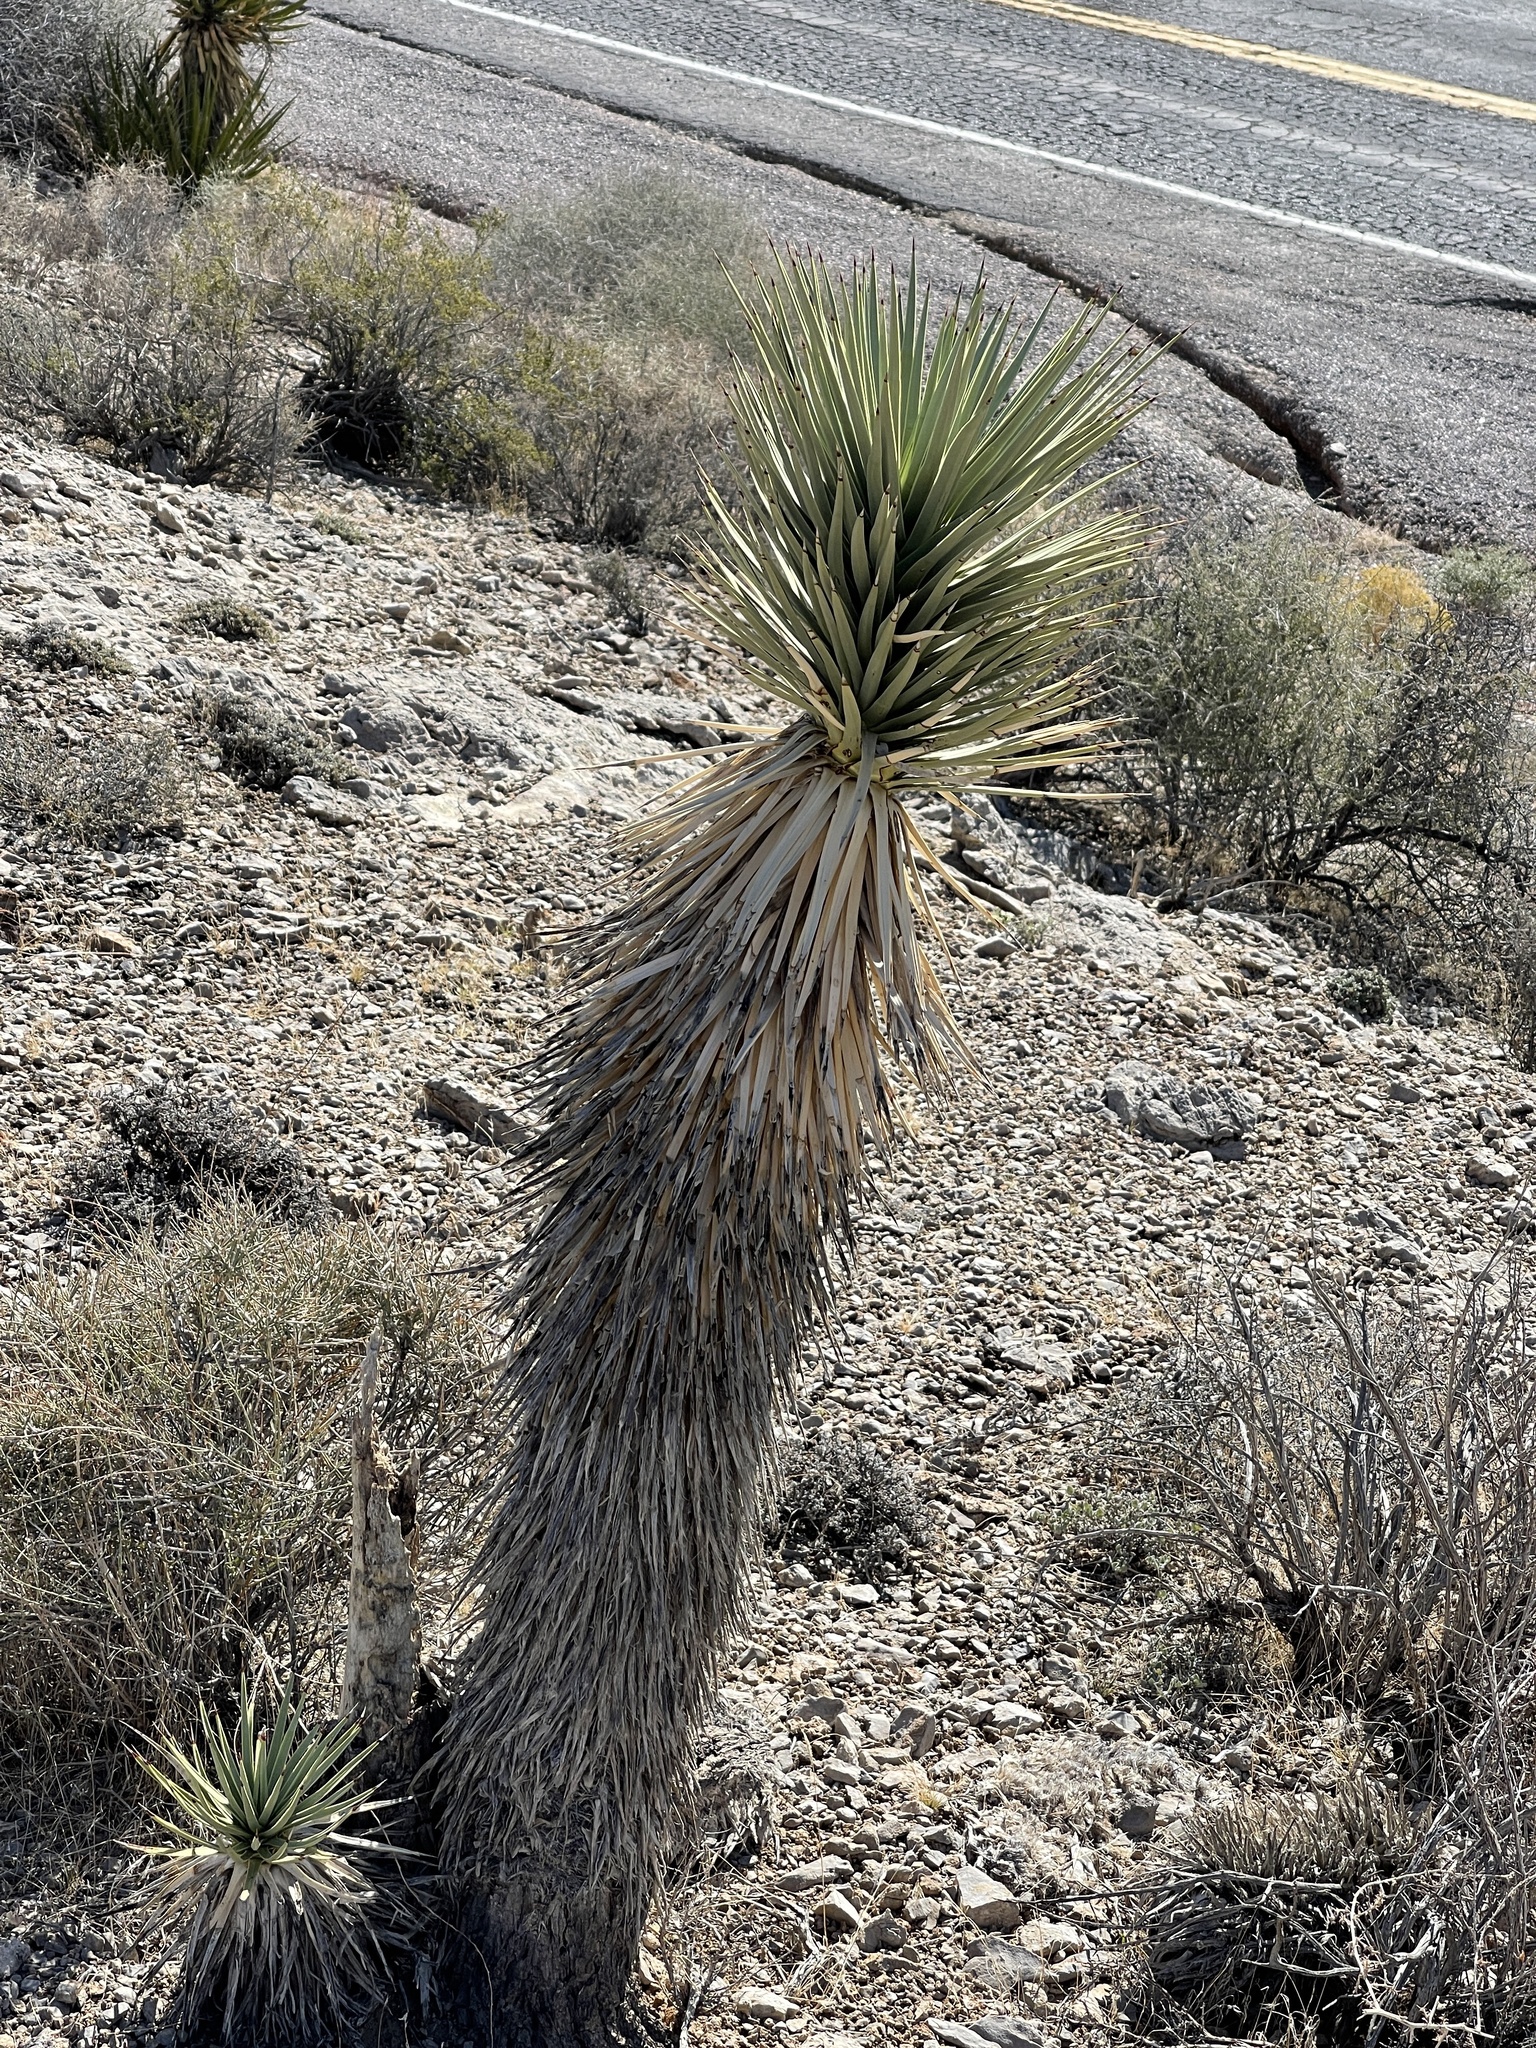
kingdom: Plantae
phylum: Tracheophyta
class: Liliopsida
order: Asparagales
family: Asparagaceae
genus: Yucca
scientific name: Yucca brevifolia
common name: Joshua tree
